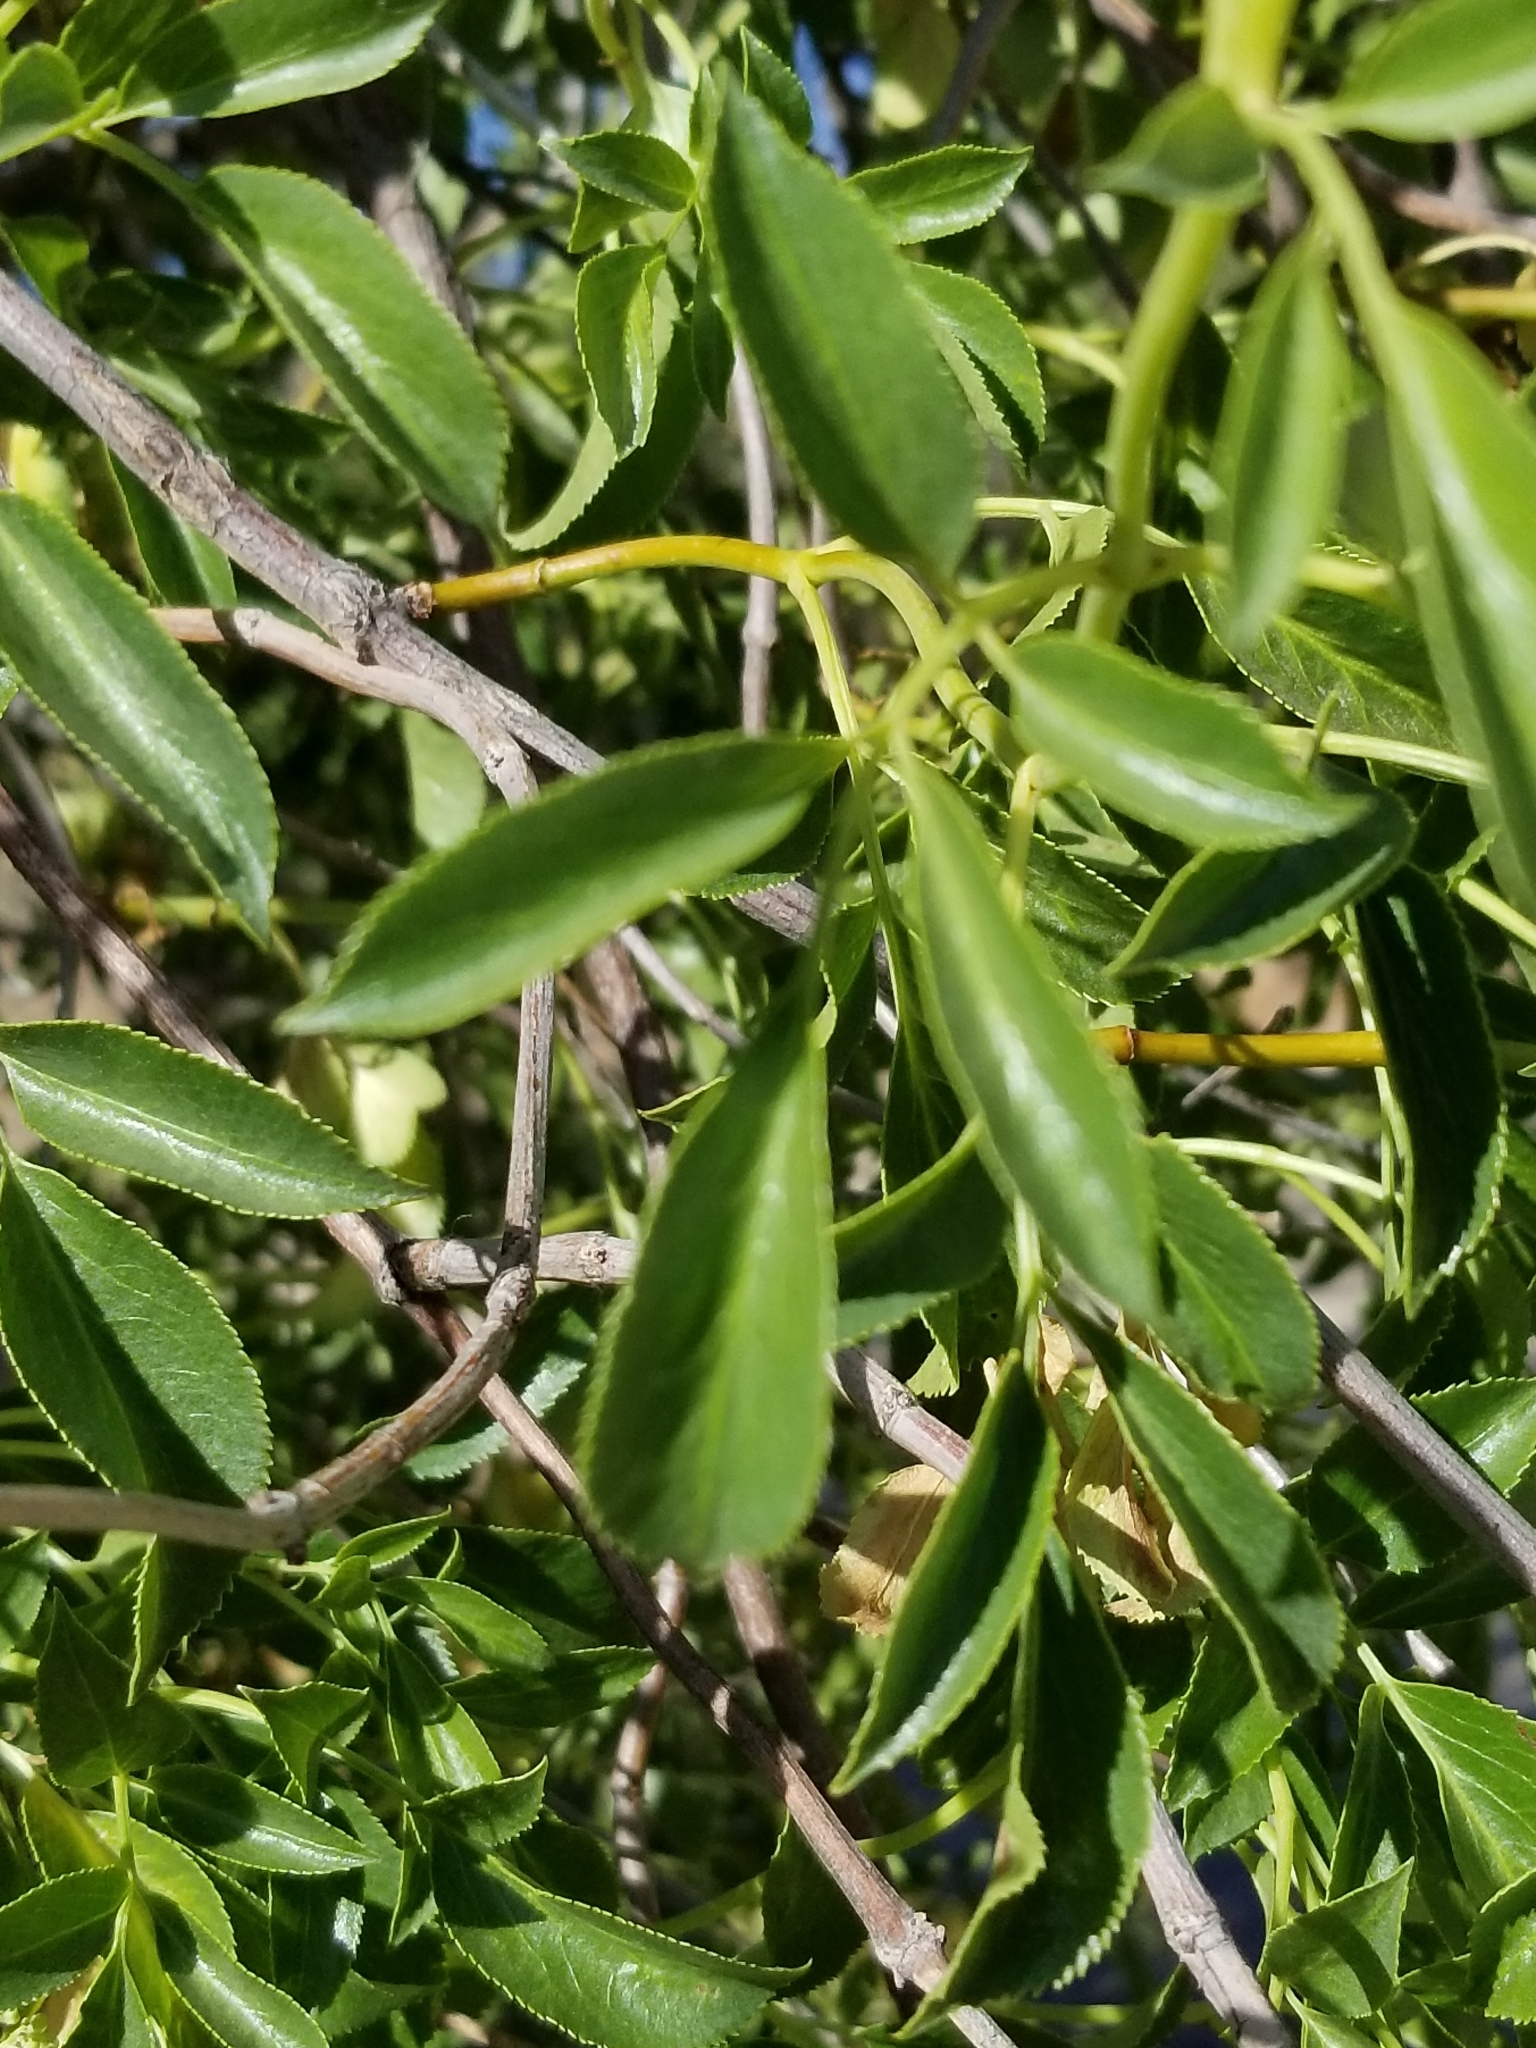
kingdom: Plantae
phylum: Tracheophyta
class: Magnoliopsida
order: Dipsacales
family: Viburnaceae
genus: Sambucus
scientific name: Sambucus cerulea
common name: Blue elder
